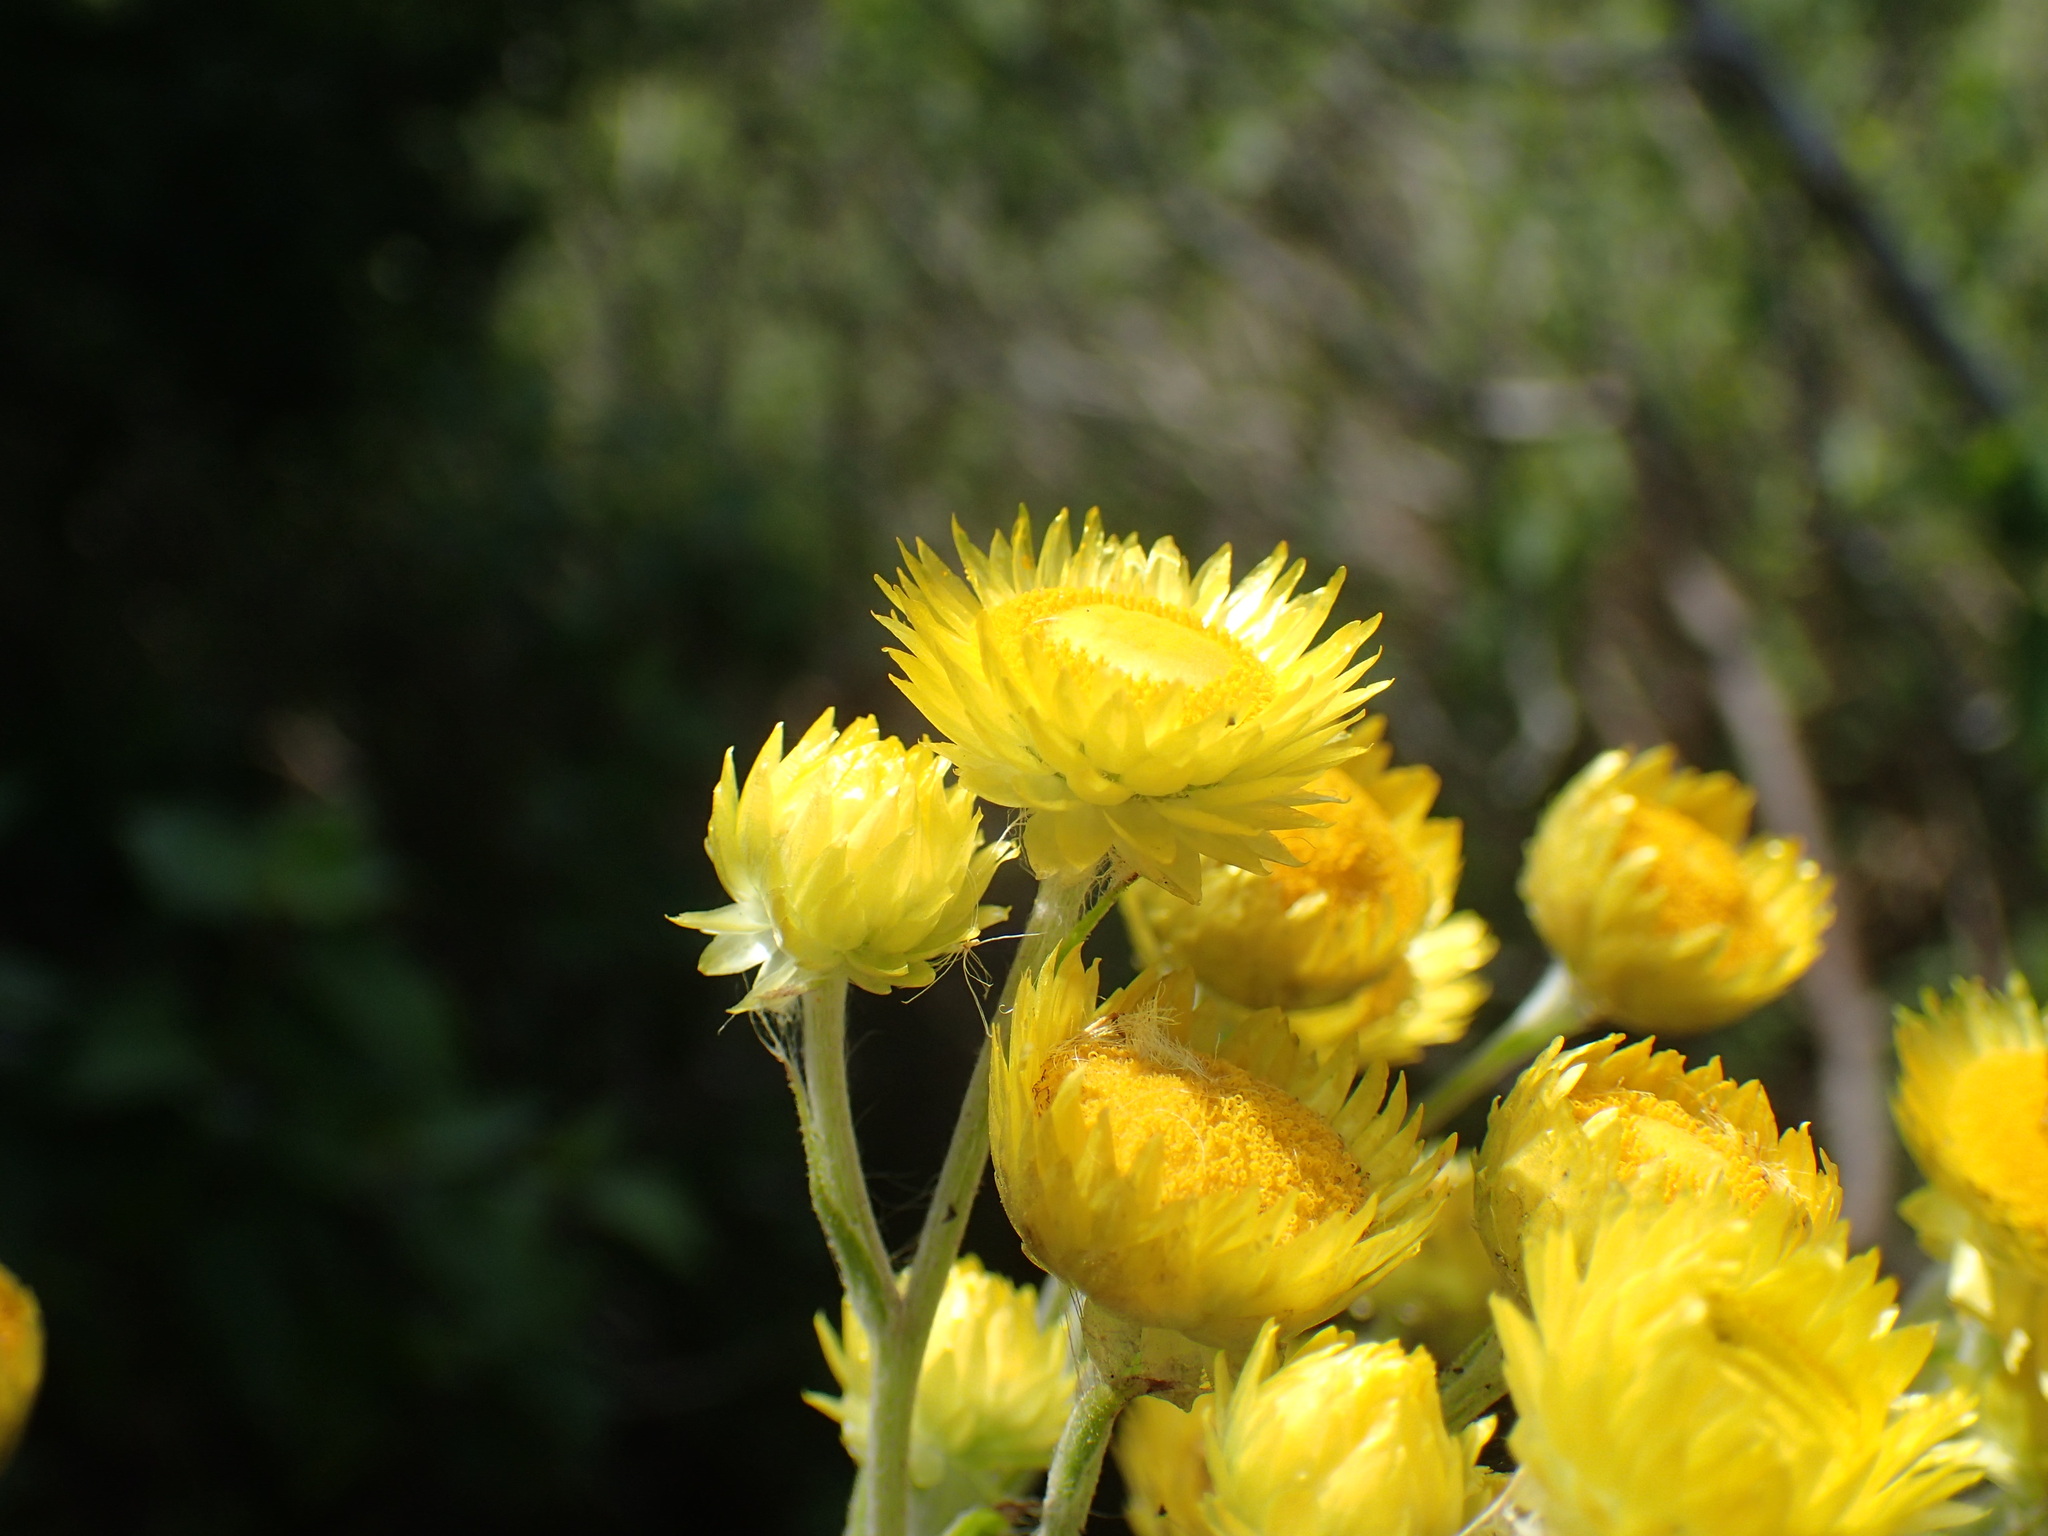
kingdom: Plantae
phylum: Tracheophyta
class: Magnoliopsida
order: Asterales
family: Asteraceae
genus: Helichrysum
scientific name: Helichrysum ruderale
